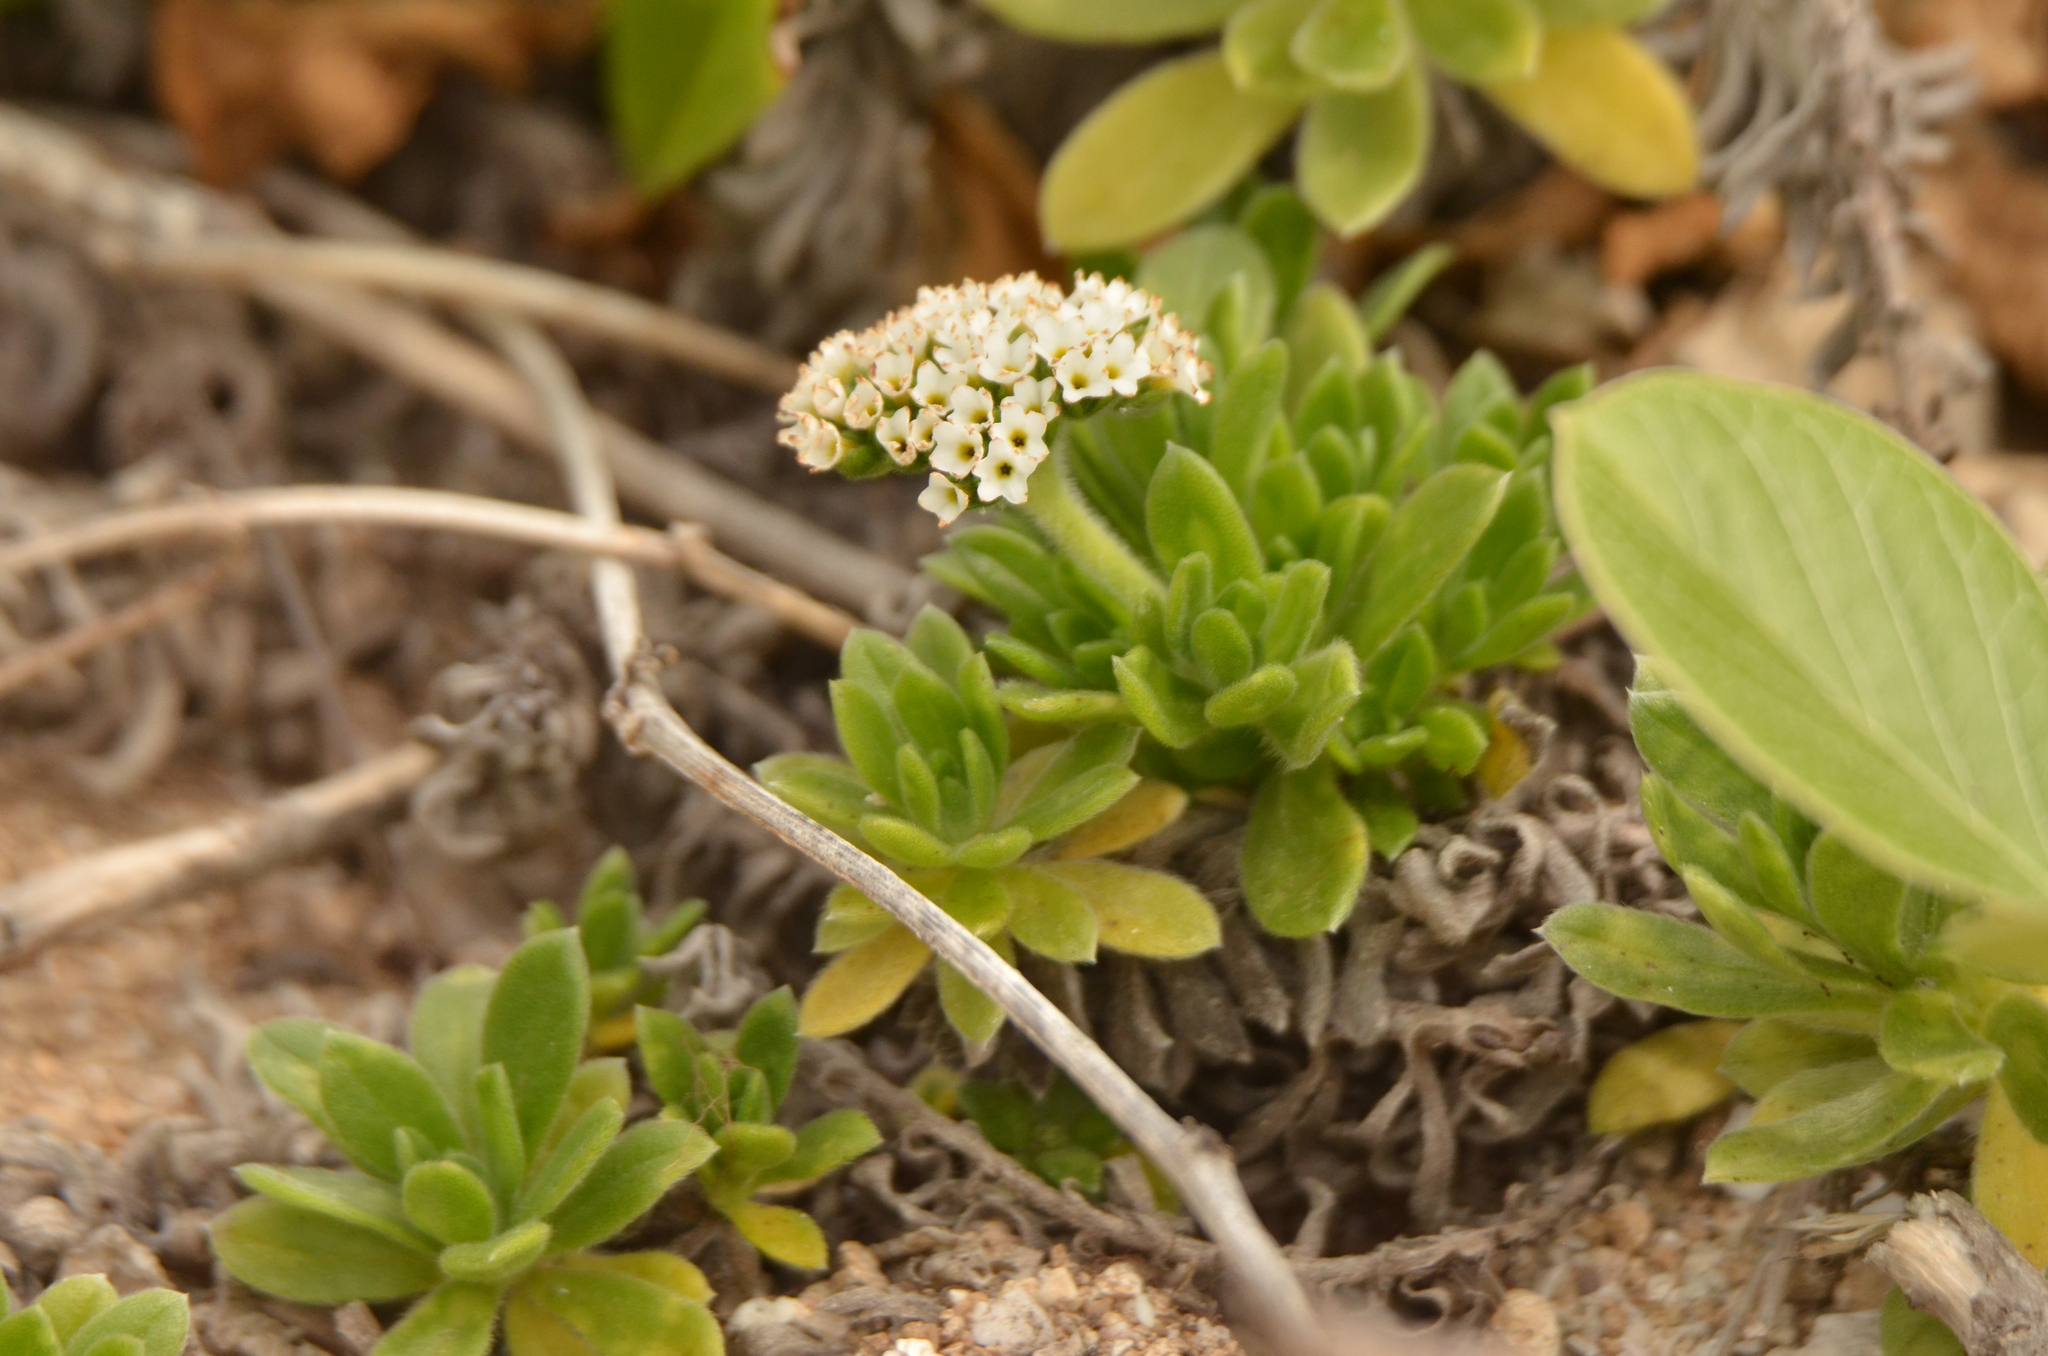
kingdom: Plantae
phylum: Tracheophyta
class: Magnoliopsida
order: Boraginales
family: Heliotropiaceae
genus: Heliotropium
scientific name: Heliotropium anomalum
